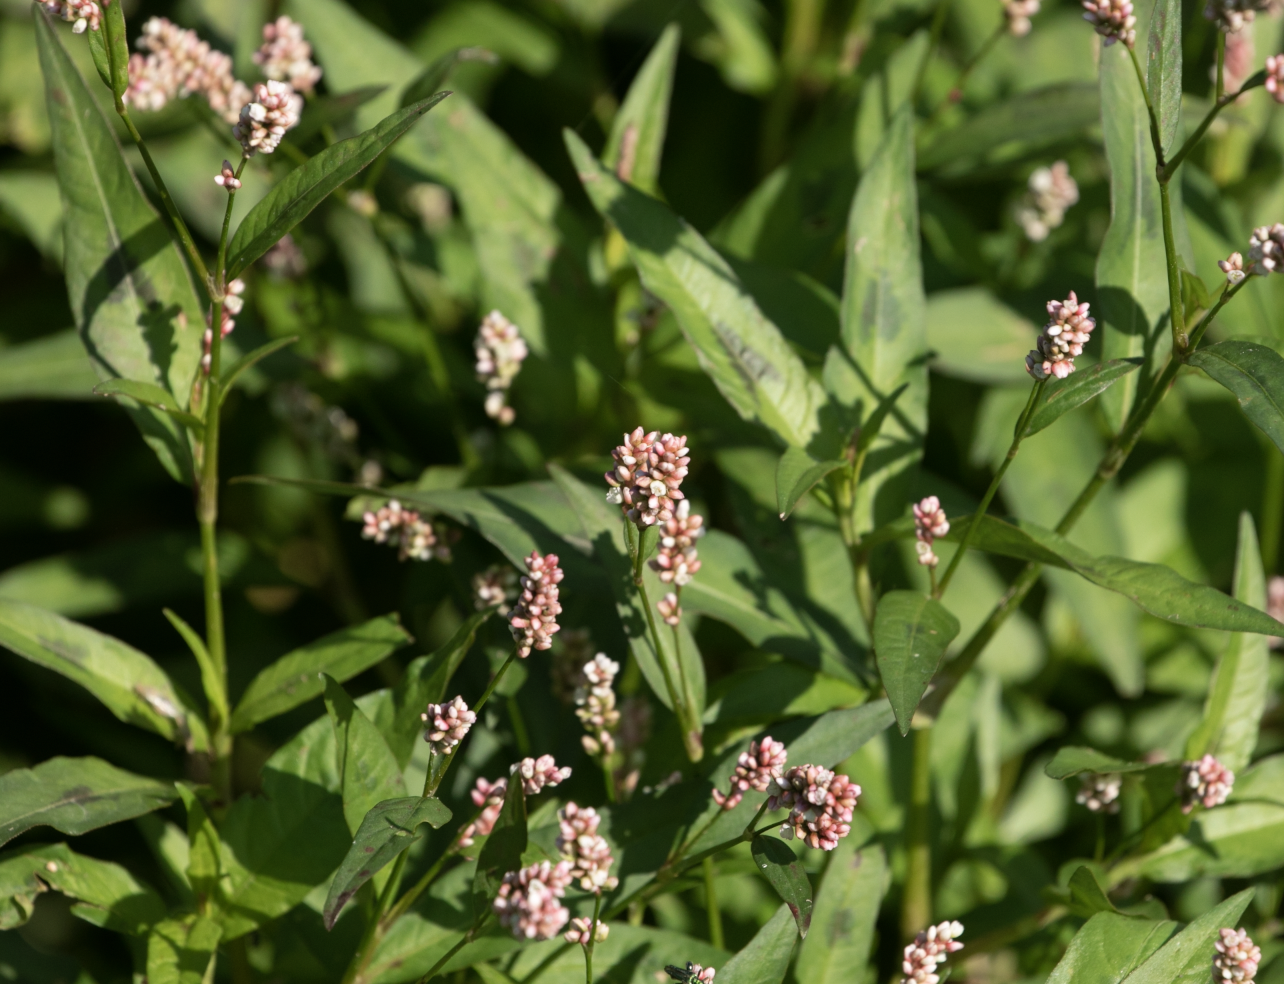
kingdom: Plantae
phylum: Tracheophyta
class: Magnoliopsida
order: Caryophyllales
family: Polygonaceae
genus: Persicaria
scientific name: Persicaria maculosa
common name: Redshank
